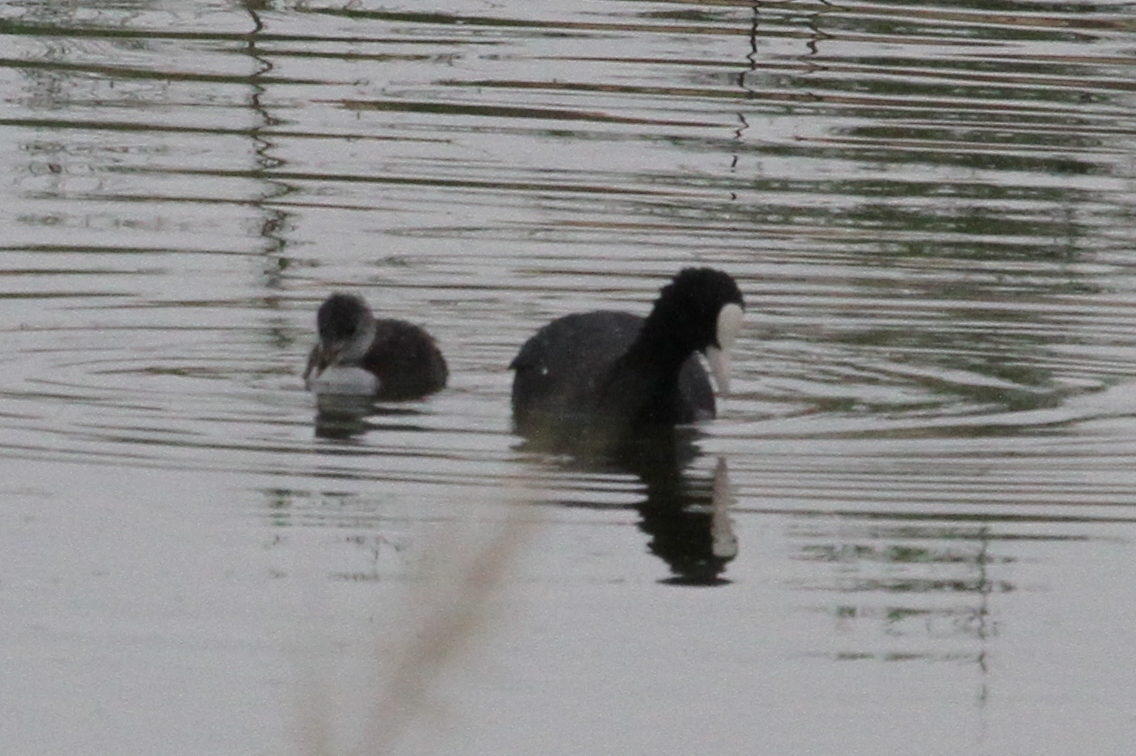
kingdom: Animalia
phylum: Chordata
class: Aves
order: Gruiformes
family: Rallidae
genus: Fulica
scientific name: Fulica atra
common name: Eurasian coot
